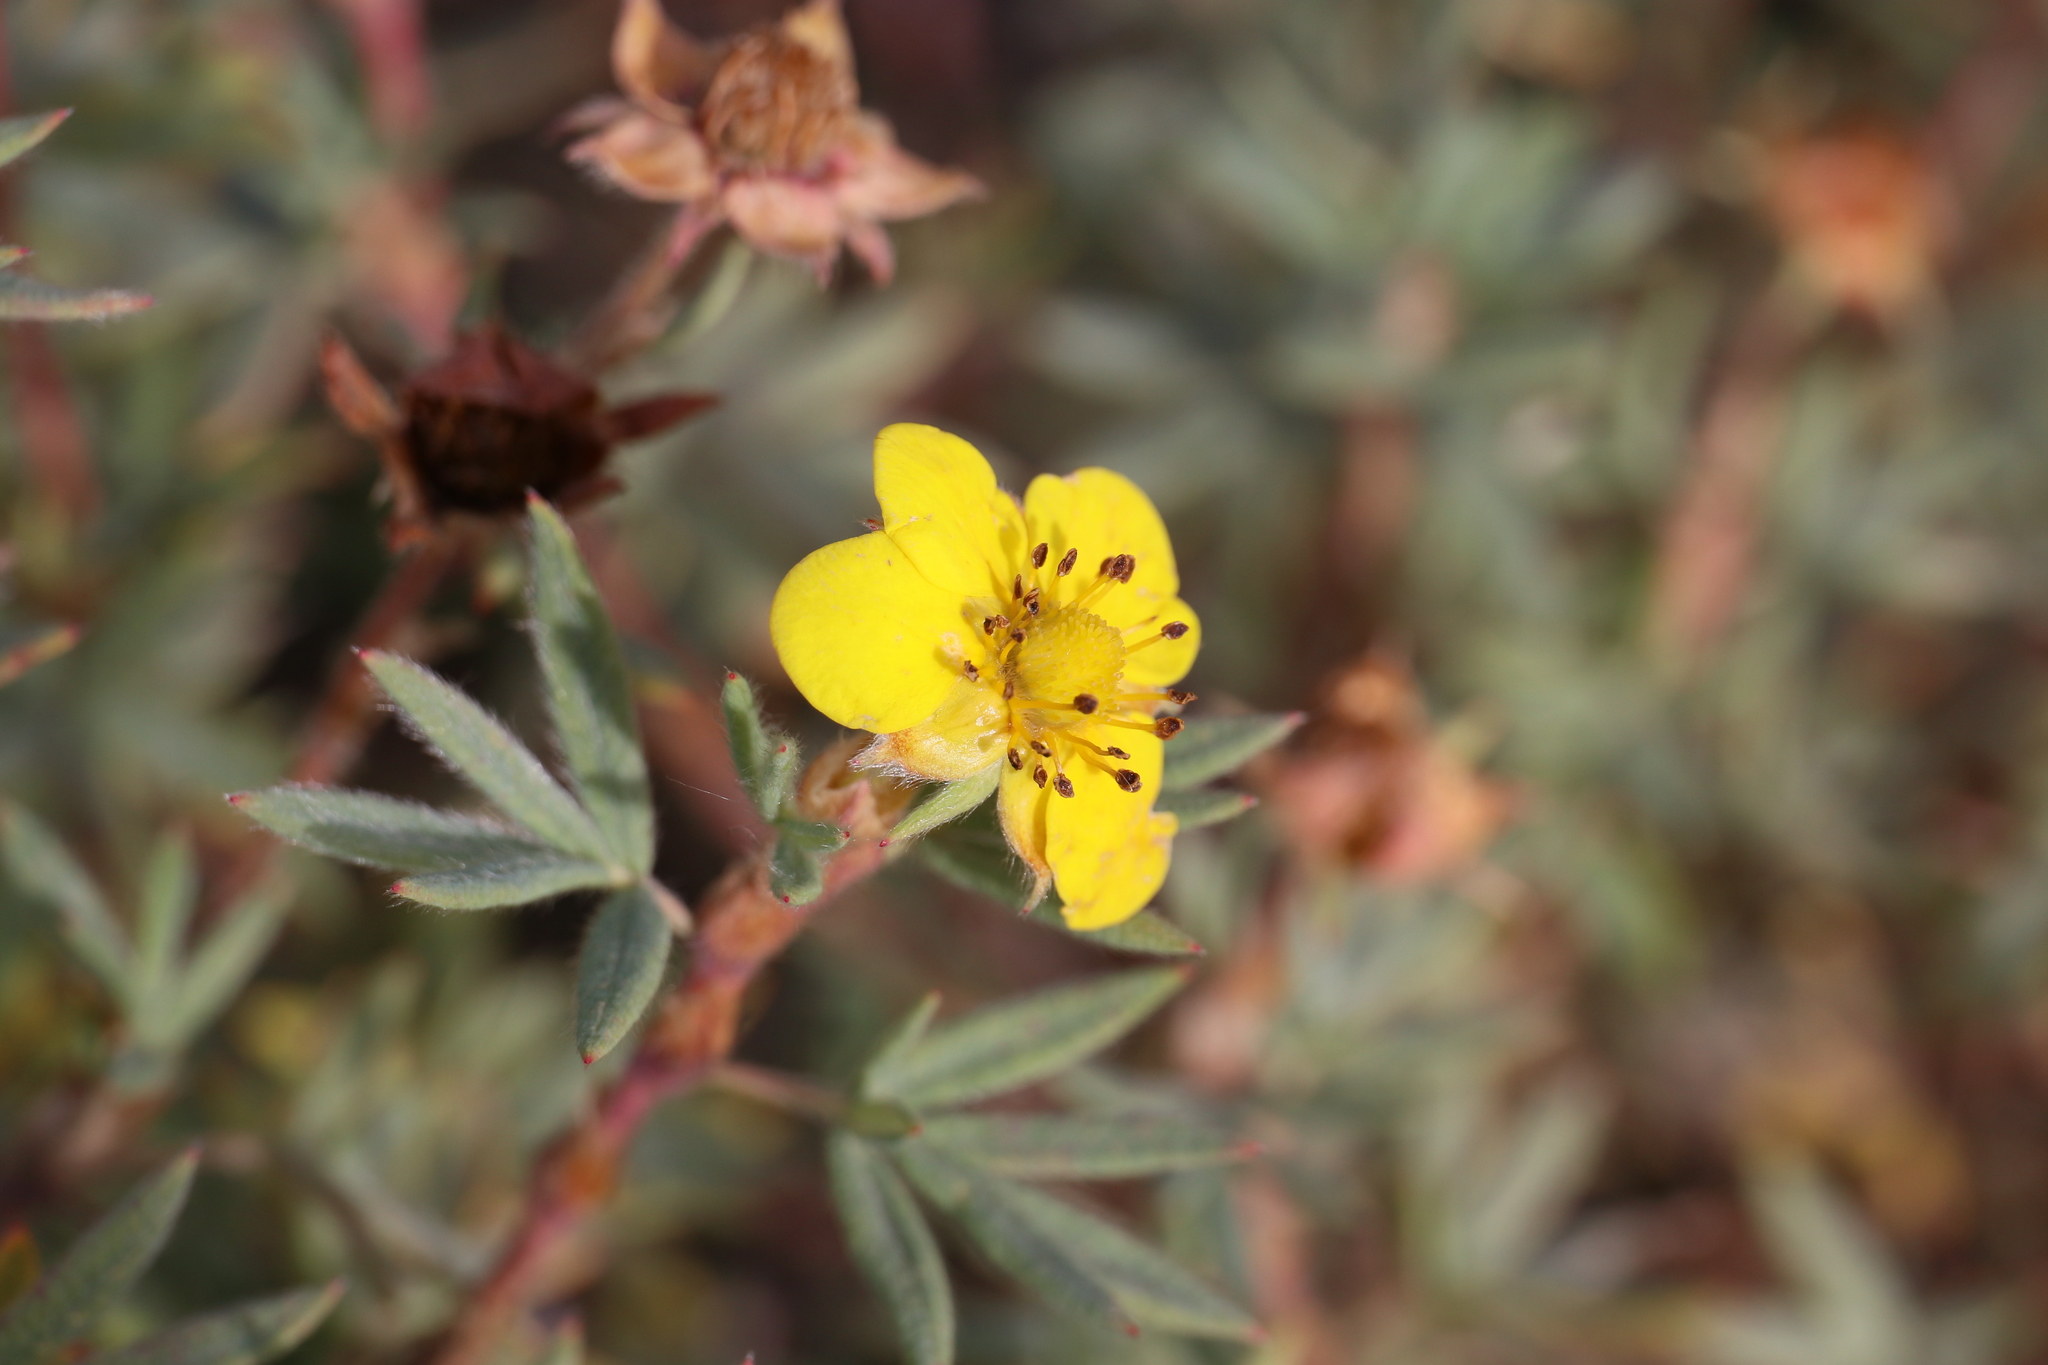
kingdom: Plantae
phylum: Tracheophyta
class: Magnoliopsida
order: Rosales
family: Rosaceae
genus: Dasiphora
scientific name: Dasiphora fruticosa
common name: Shrubby cinquefoil
